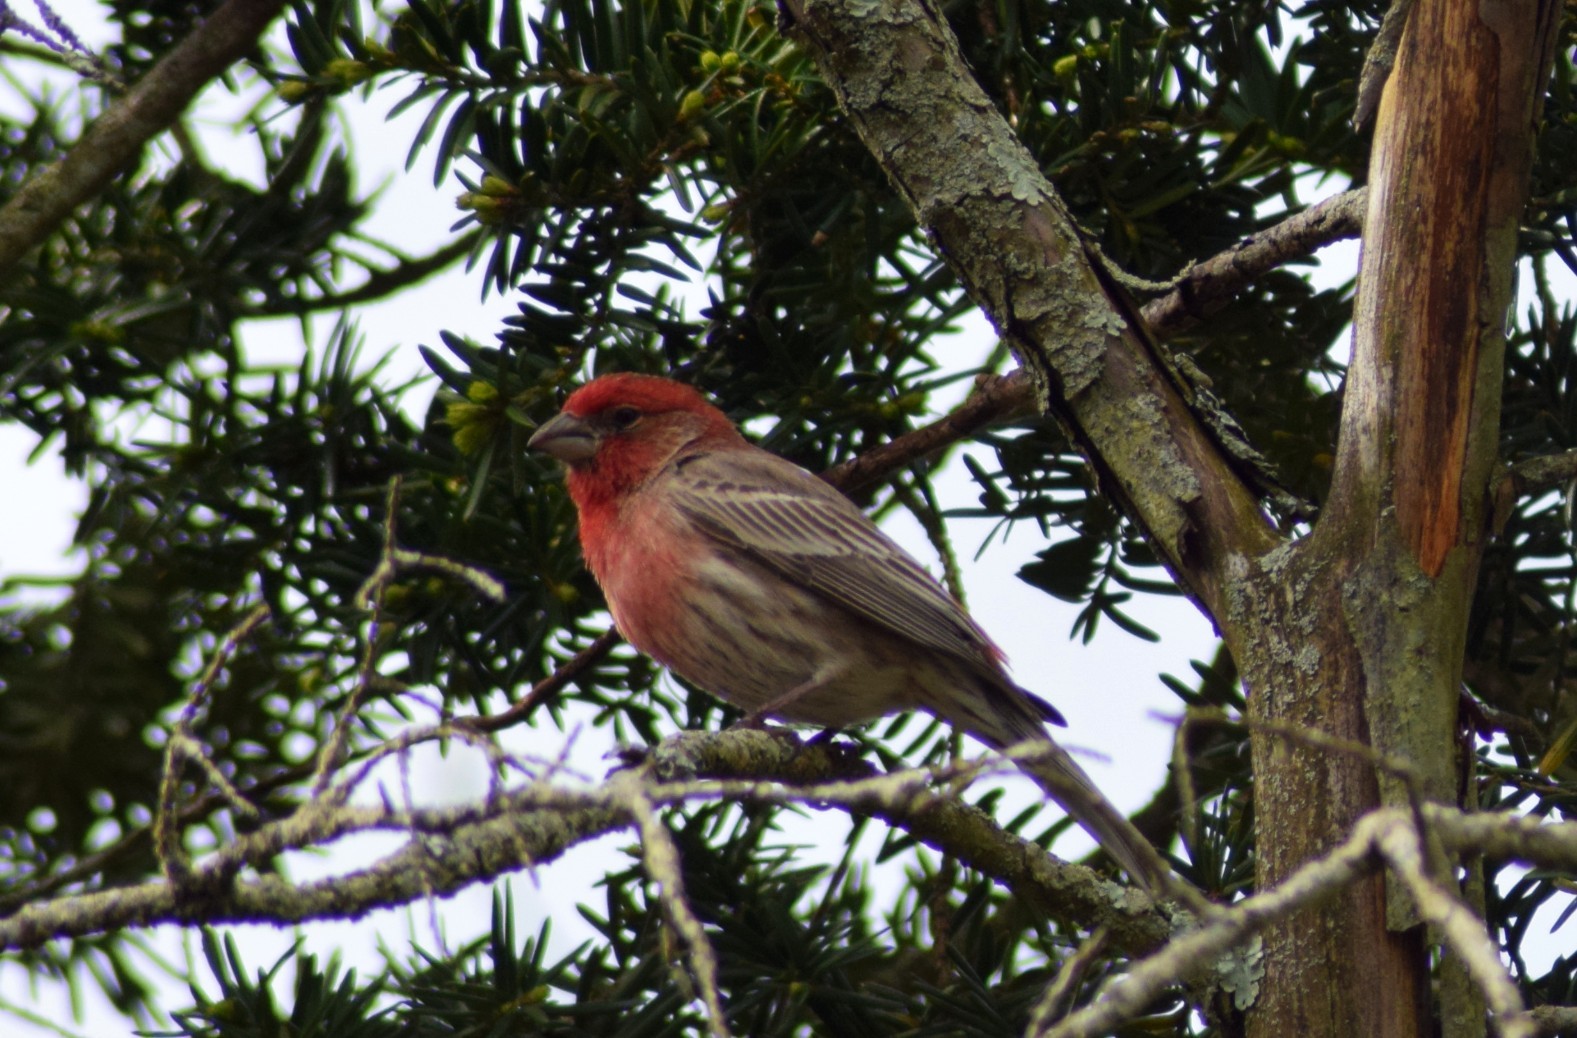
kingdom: Animalia
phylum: Chordata
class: Aves
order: Passeriformes
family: Fringillidae
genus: Haemorhous
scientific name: Haemorhous mexicanus
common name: House finch
